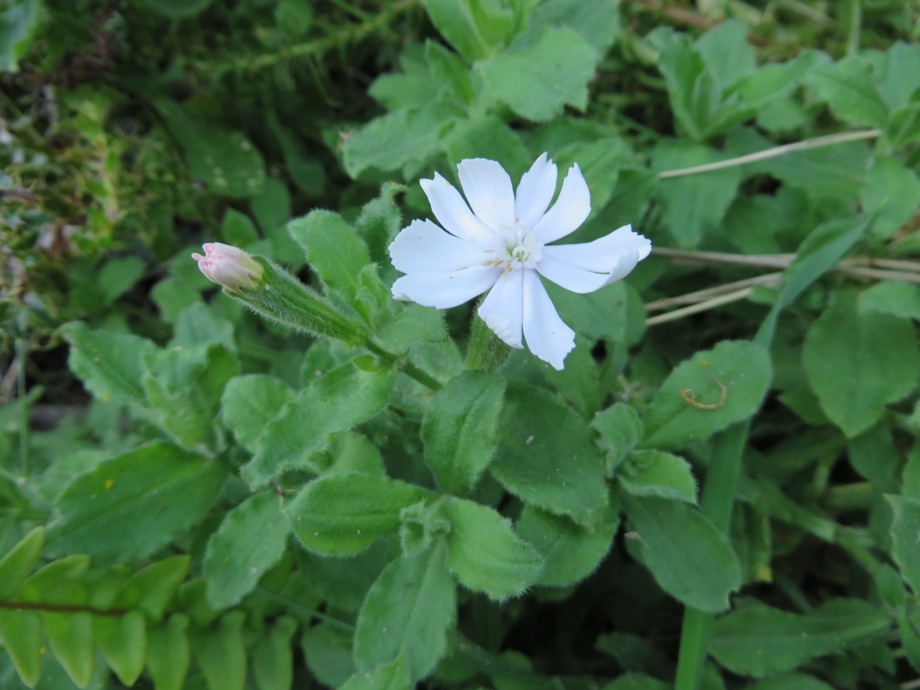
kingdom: Plantae
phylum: Tracheophyta
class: Magnoliopsida
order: Caryophyllales
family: Caryophyllaceae
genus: Silene
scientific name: Silene undulata
